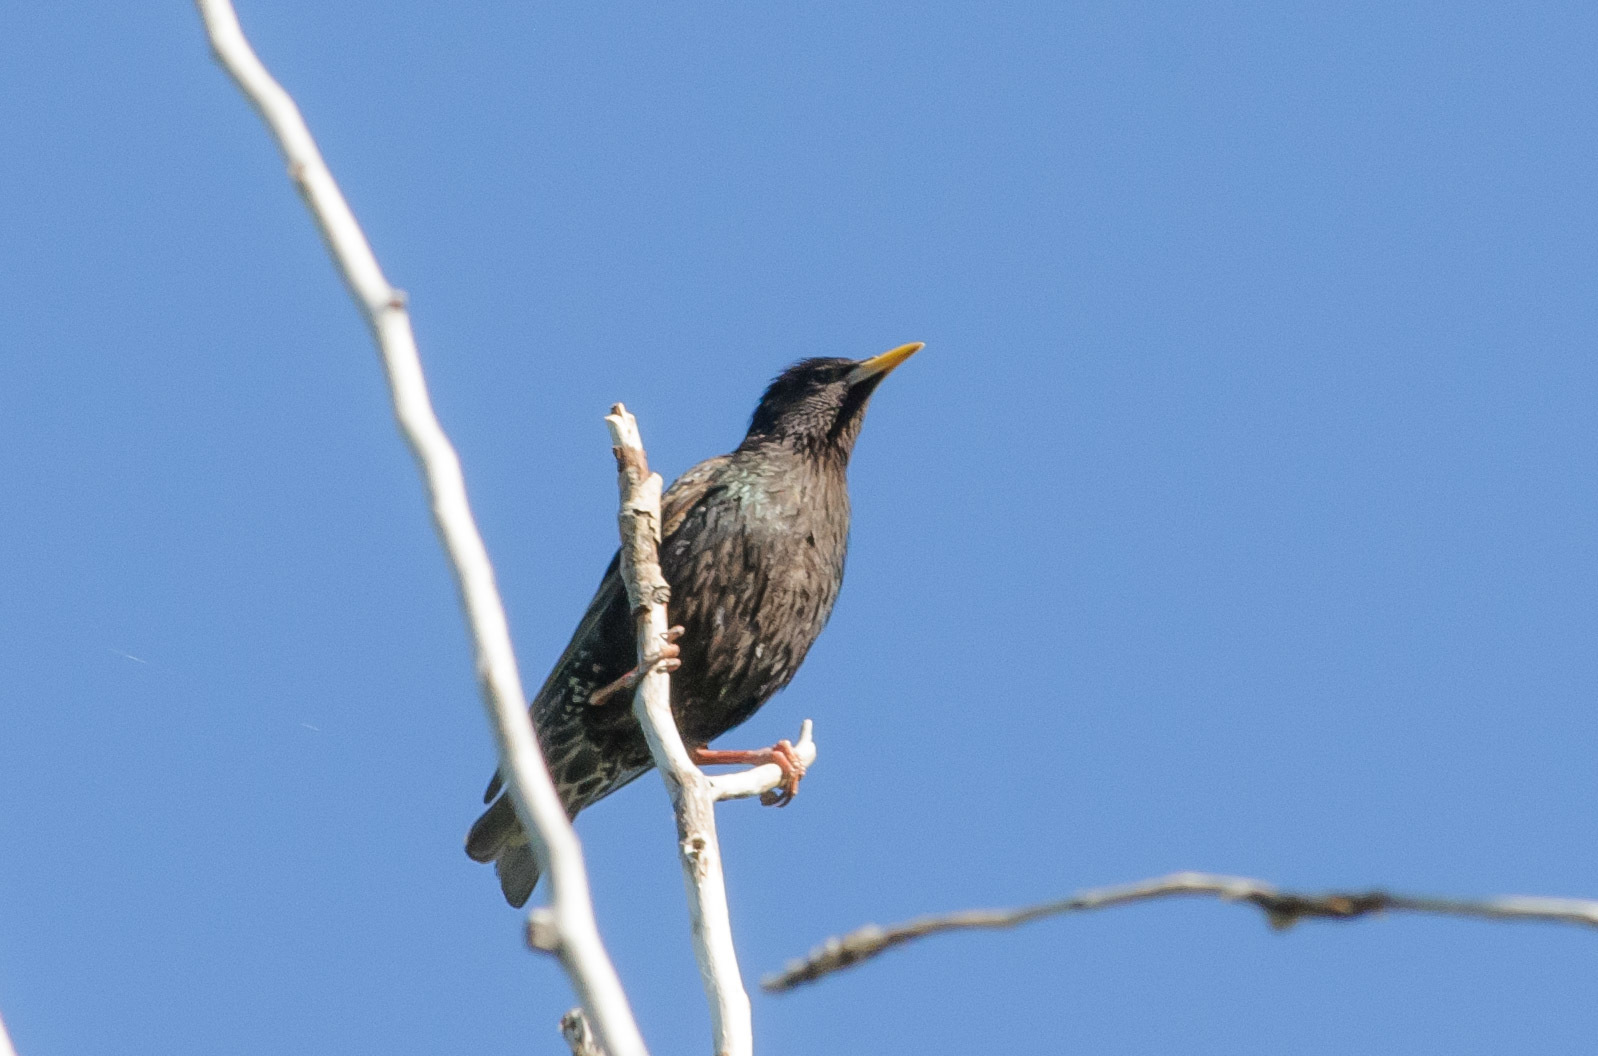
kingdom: Animalia
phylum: Chordata
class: Aves
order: Passeriformes
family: Sturnidae
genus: Sturnus
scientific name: Sturnus vulgaris
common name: Common starling
